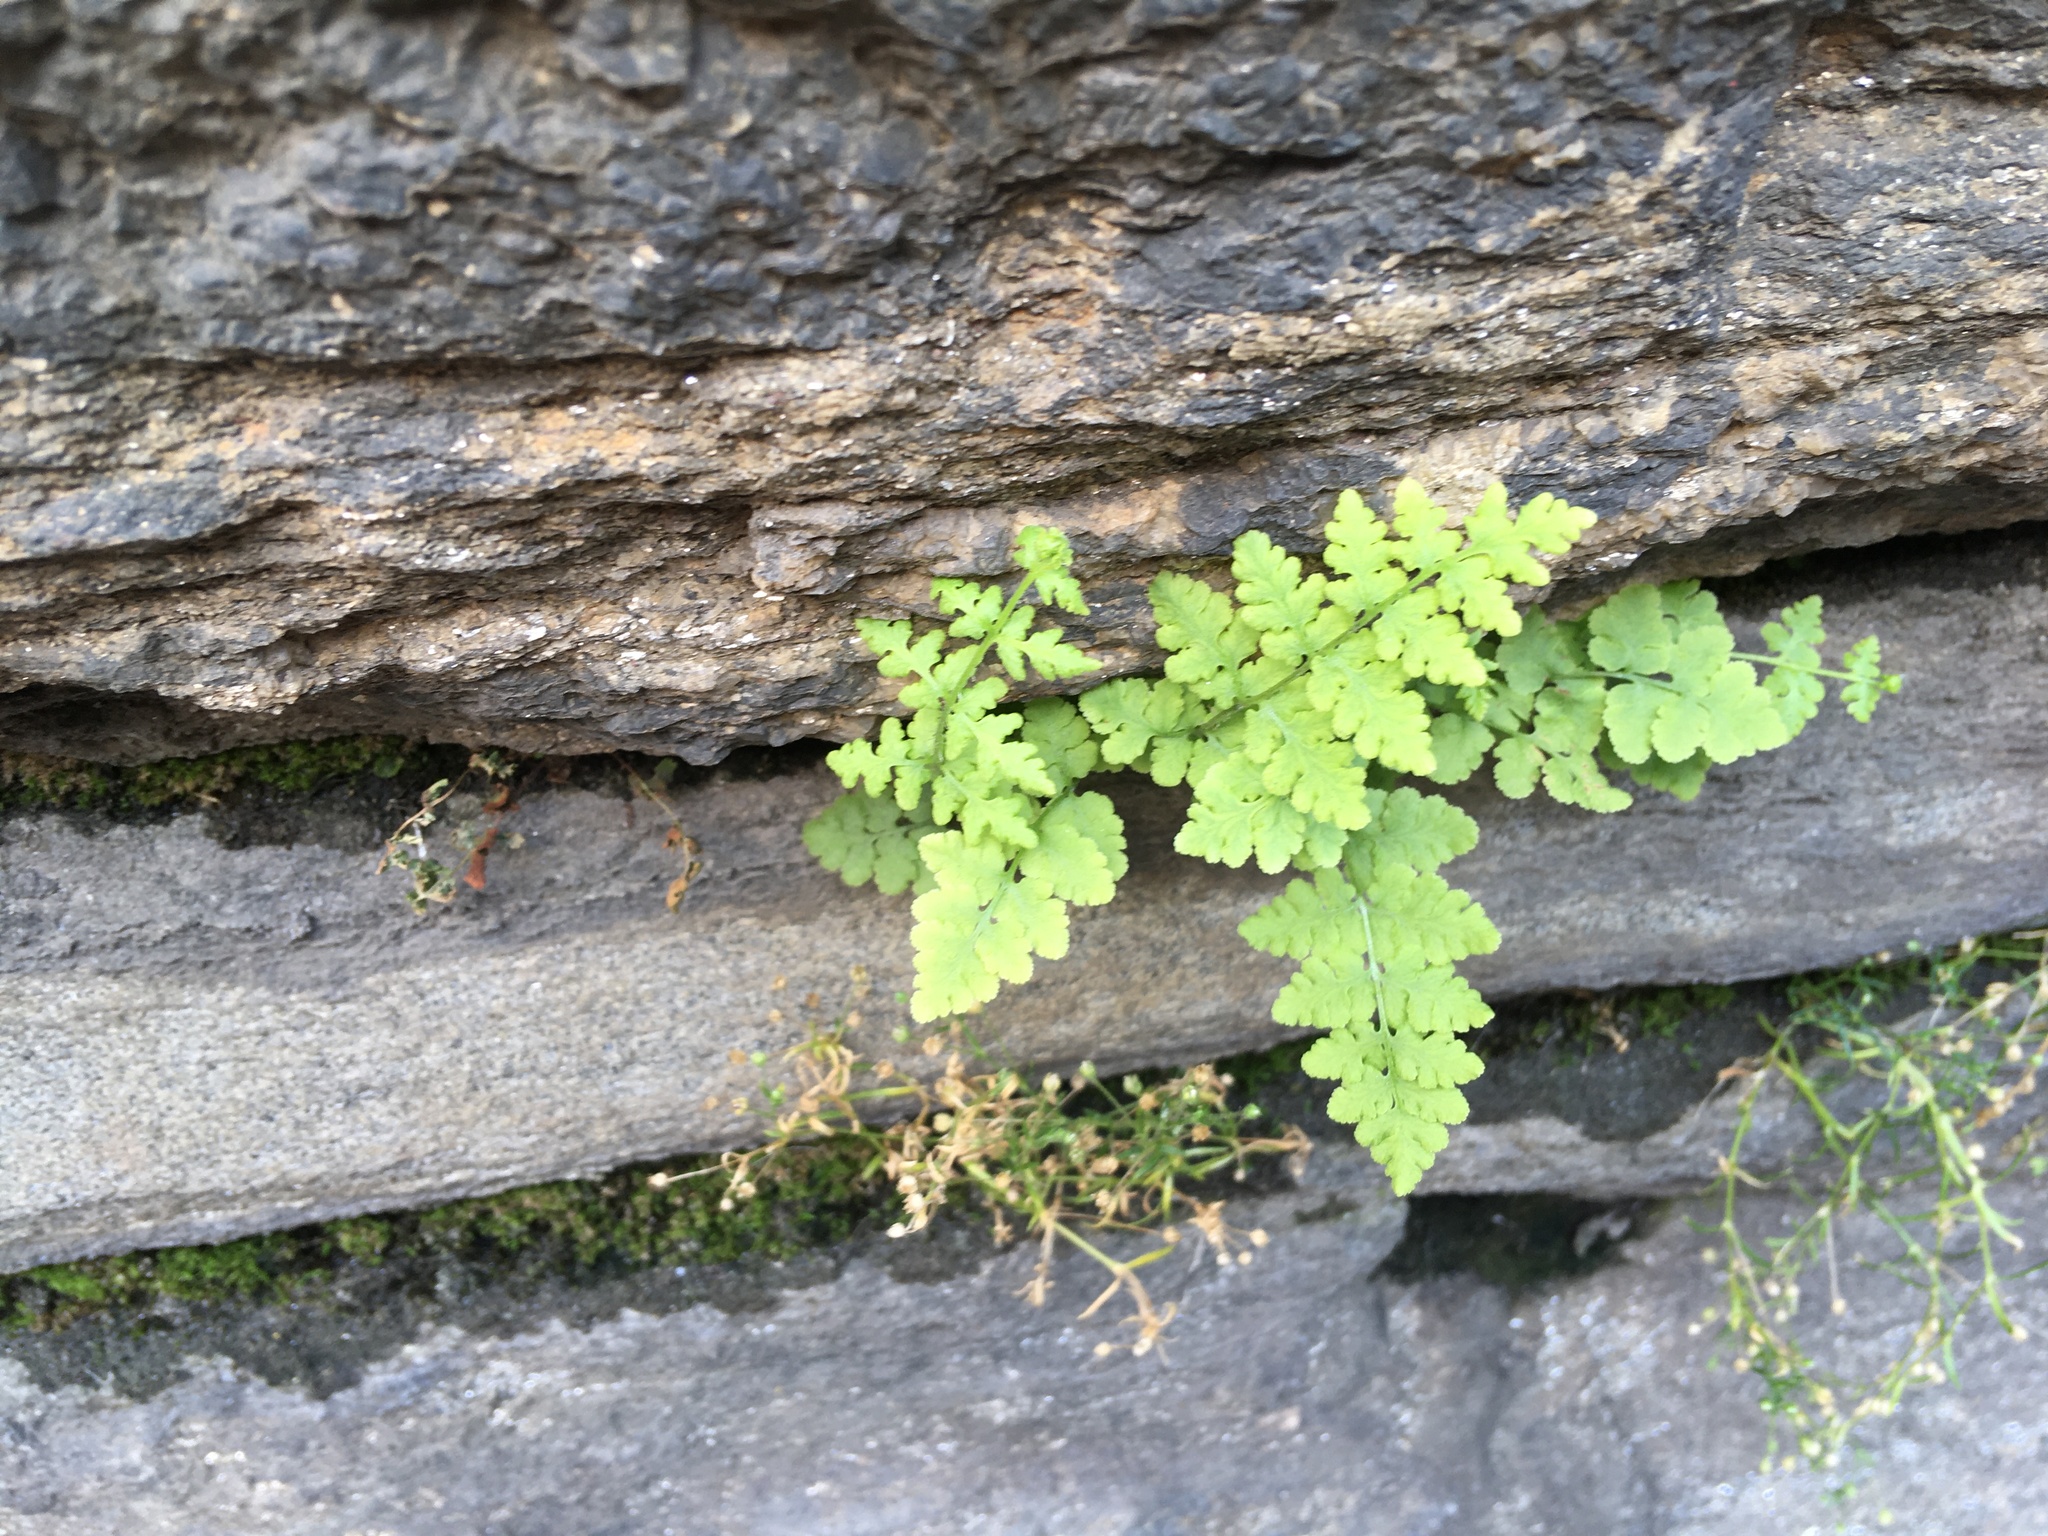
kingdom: Plantae
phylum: Tracheophyta
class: Polypodiopsida
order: Polypodiales
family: Woodsiaceae
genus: Physematium
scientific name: Physematium obtusum
